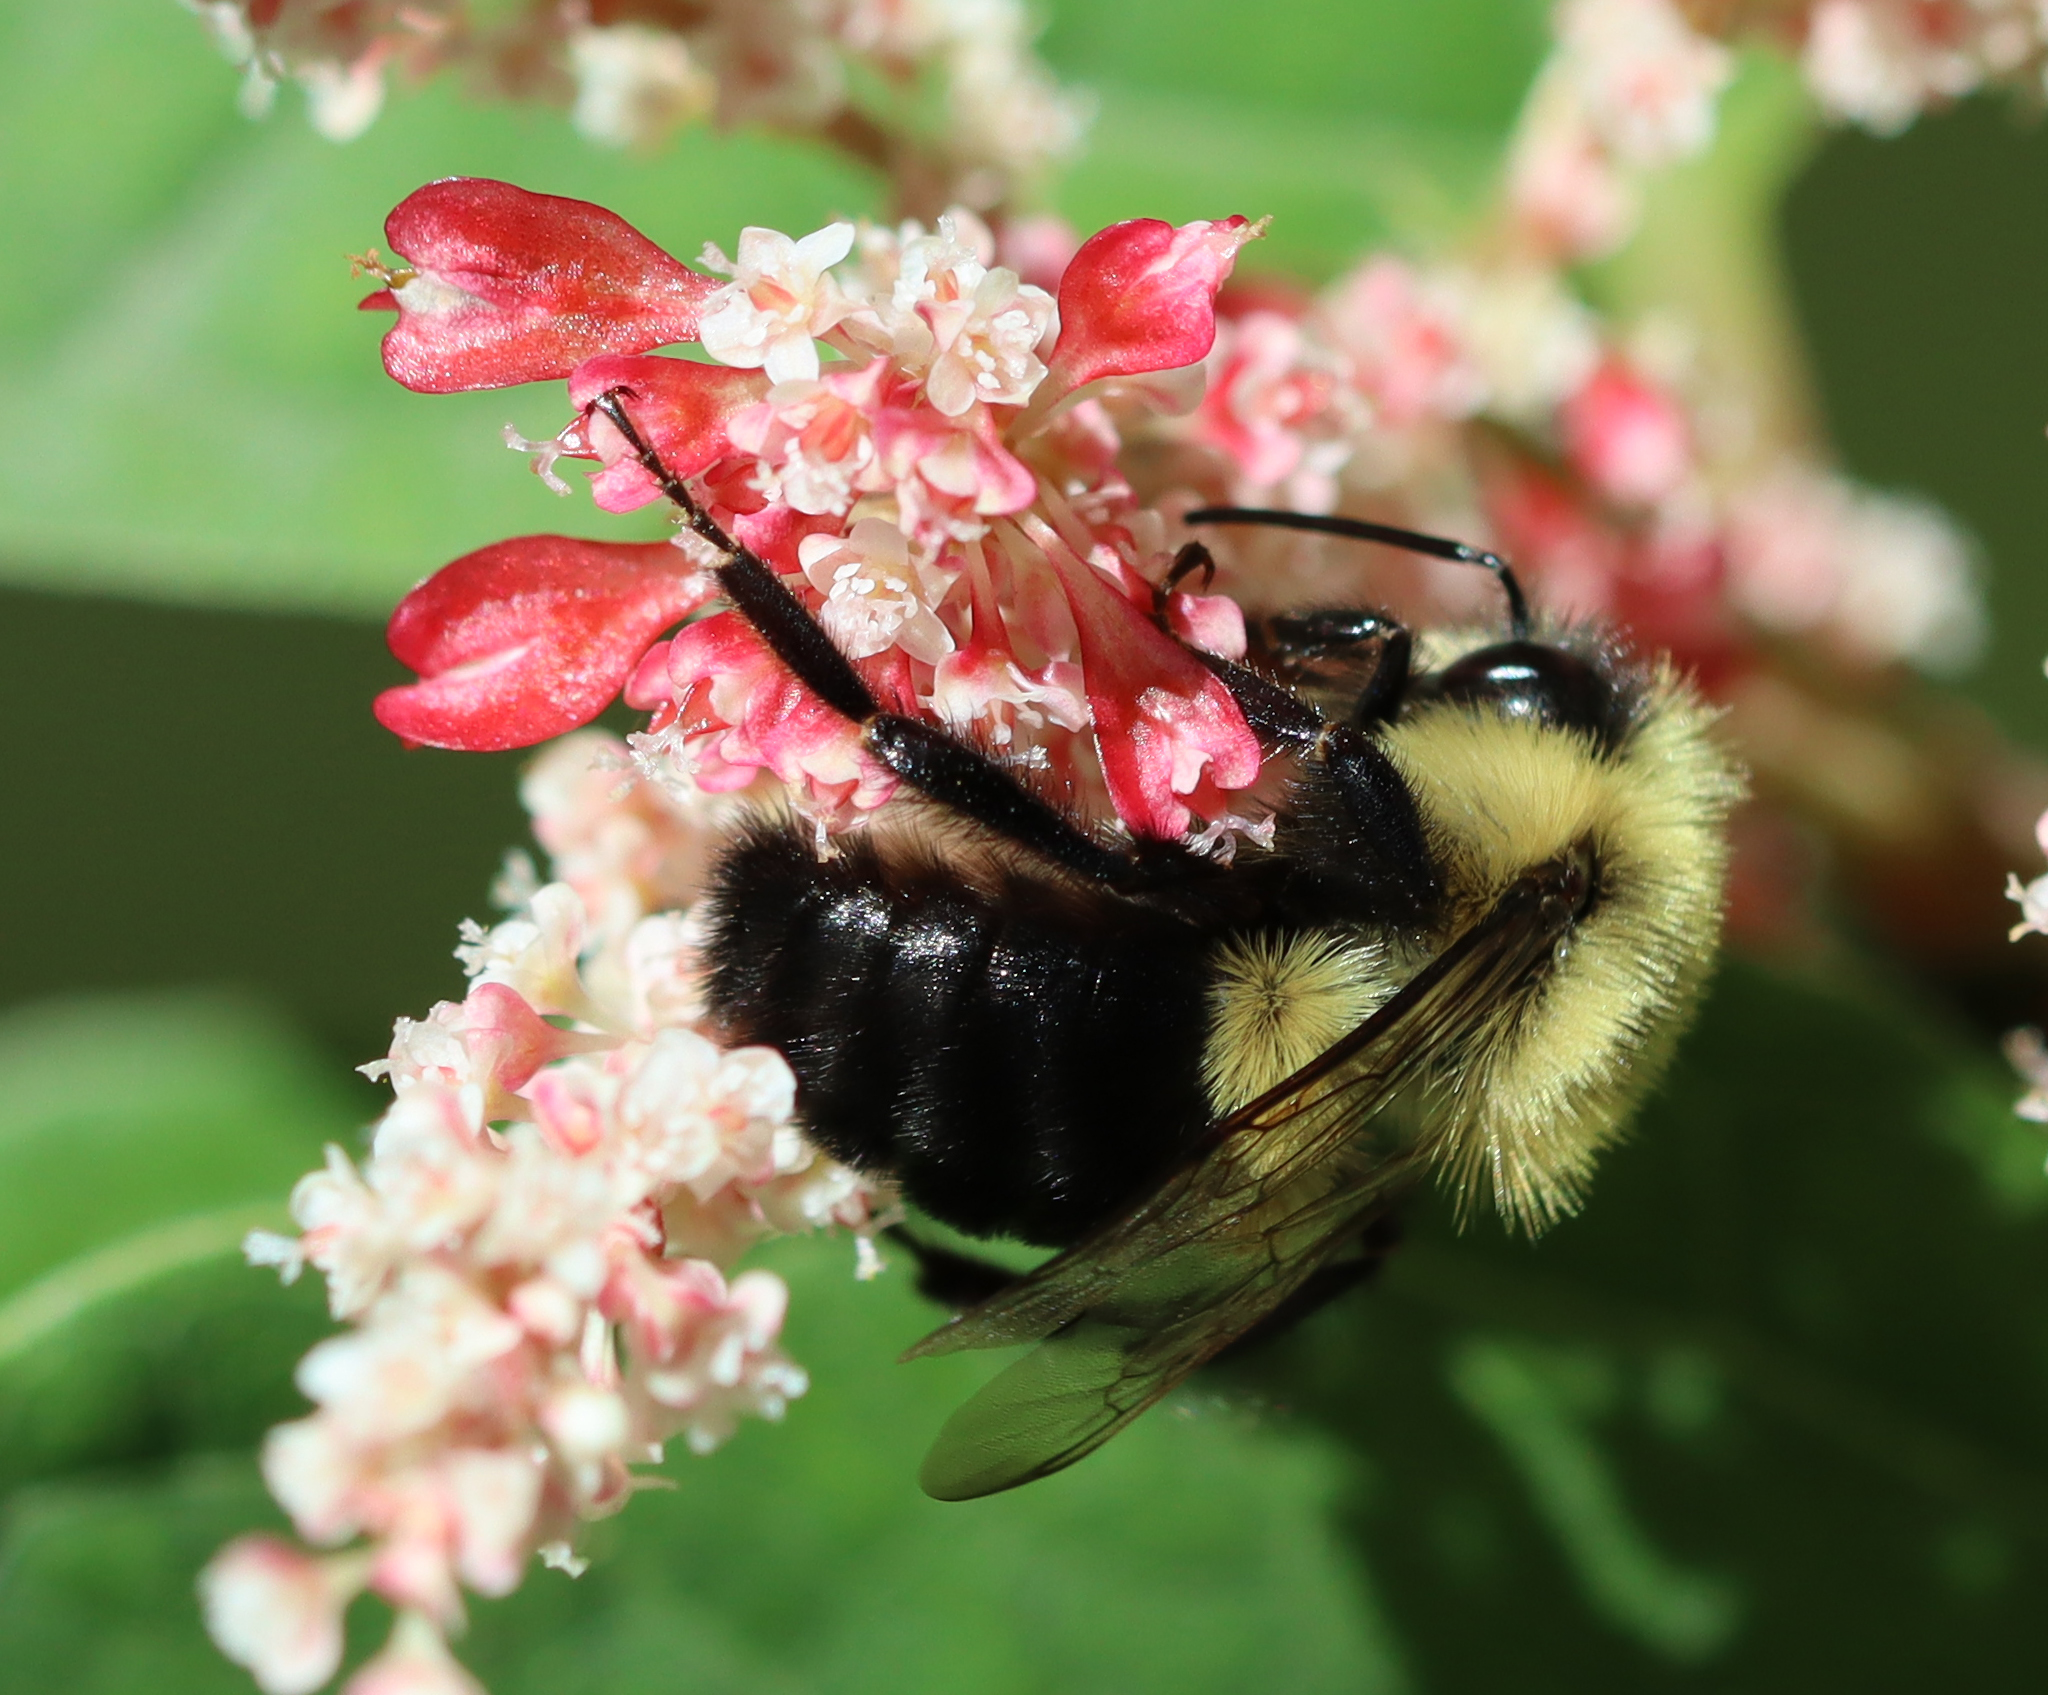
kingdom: Animalia
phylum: Arthropoda
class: Insecta
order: Hymenoptera
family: Apidae
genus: Bombus
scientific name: Bombus impatiens
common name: Common eastern bumble bee
